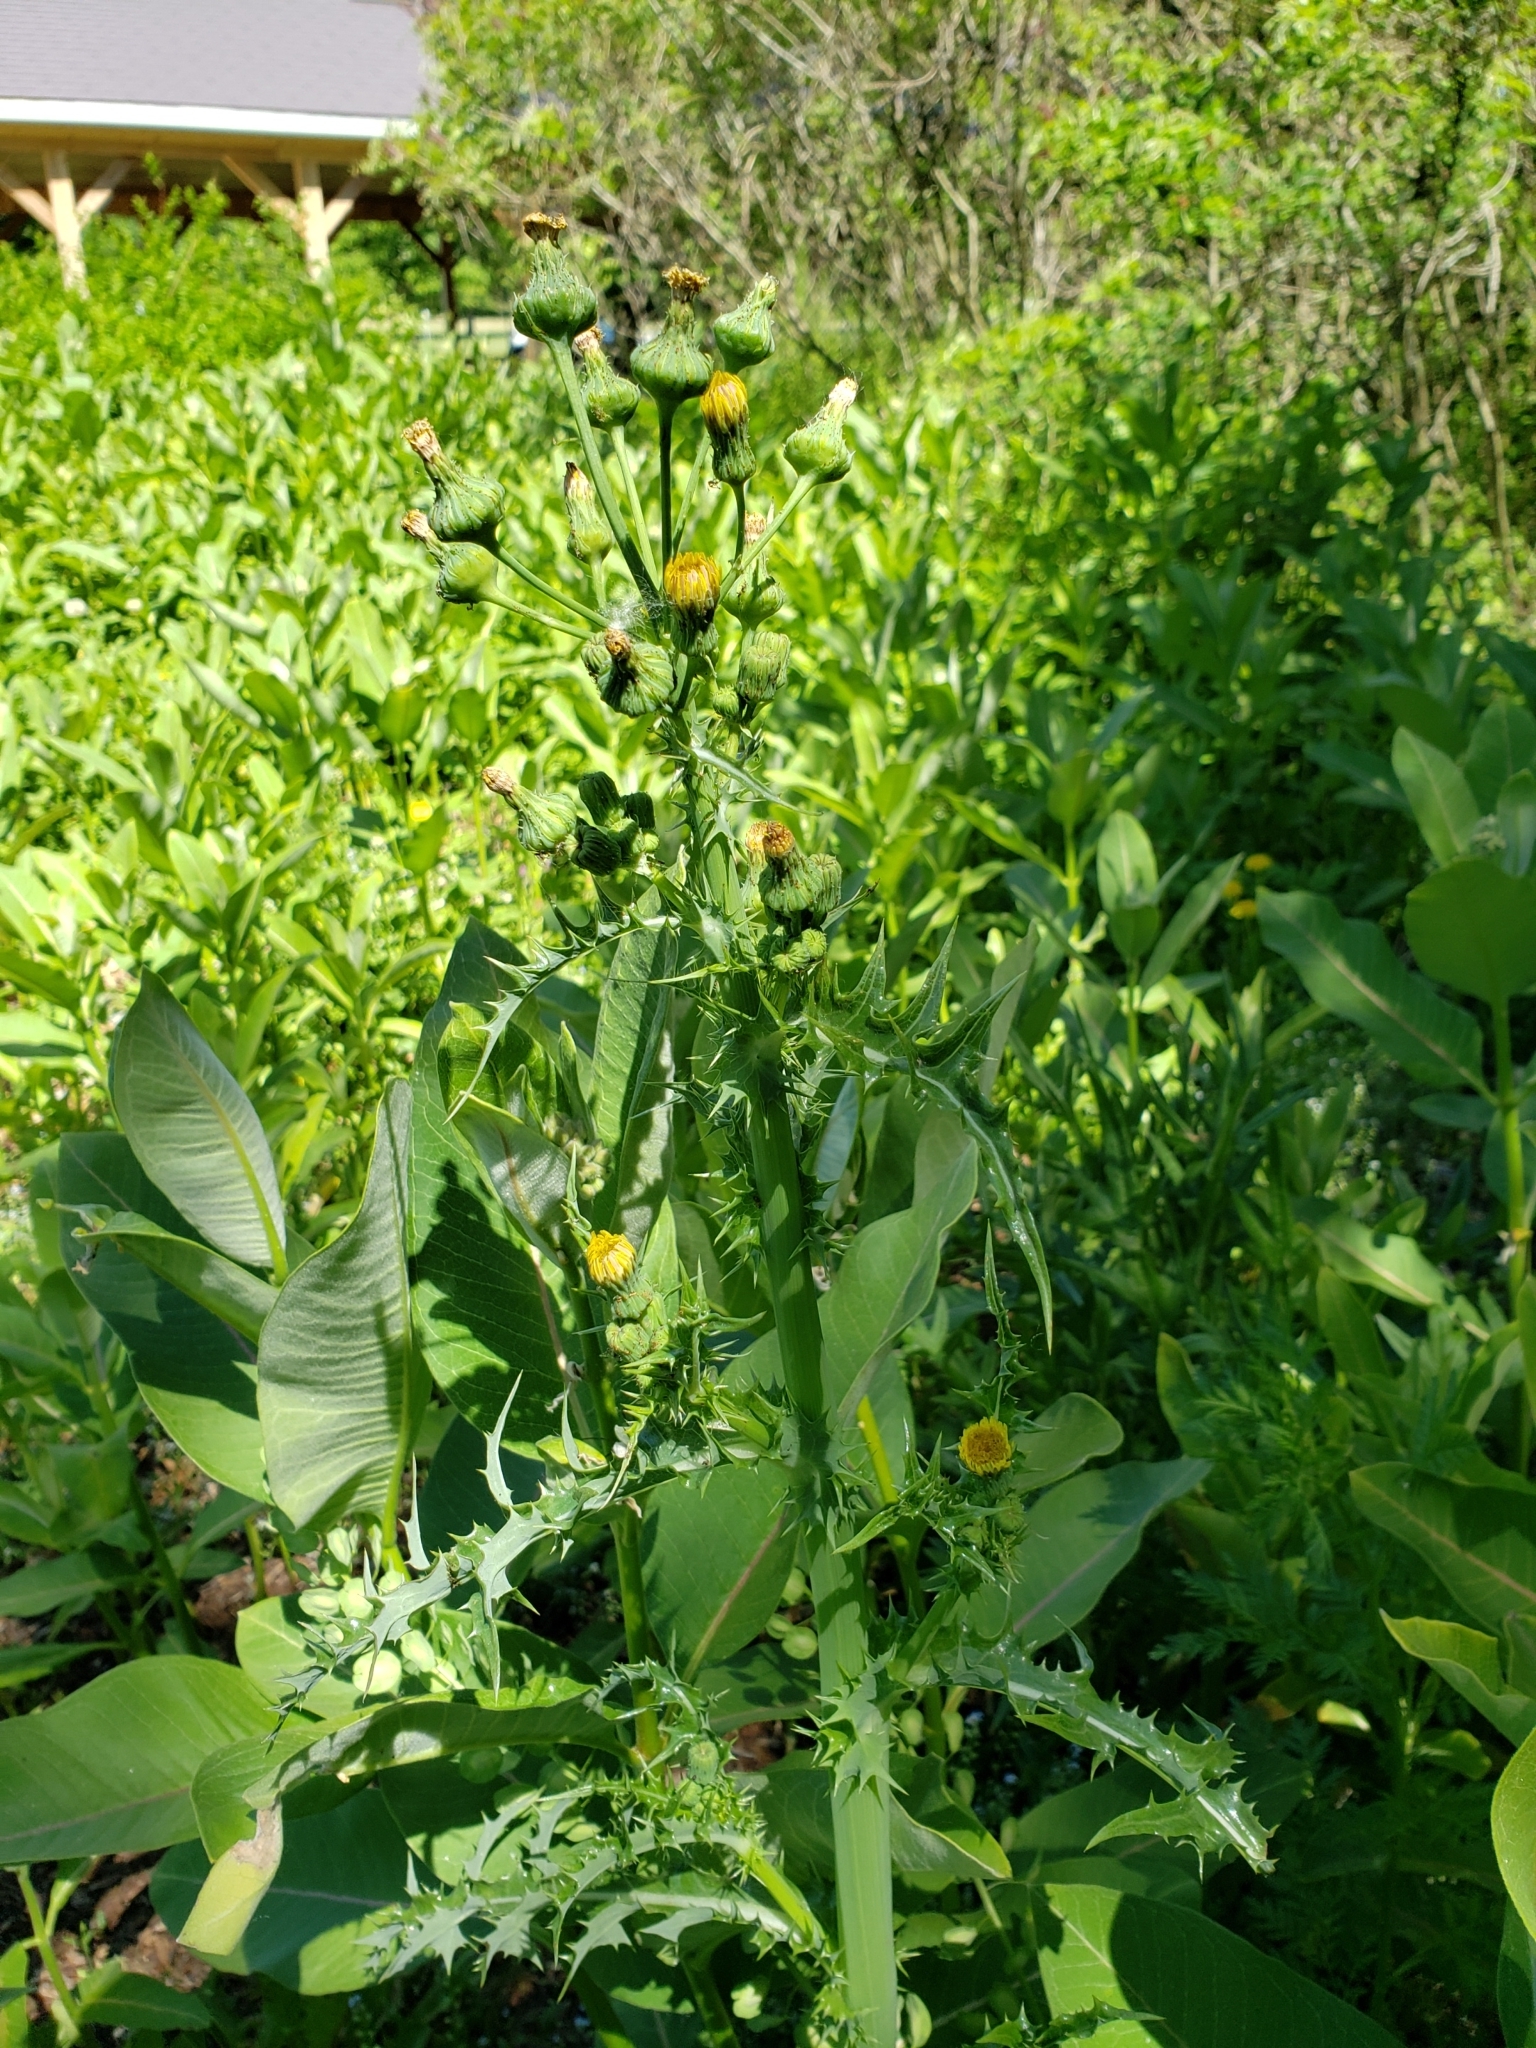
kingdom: Plantae
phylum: Tracheophyta
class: Magnoliopsida
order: Asterales
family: Asteraceae
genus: Sonchus
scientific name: Sonchus asper
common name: Prickly sow-thistle
